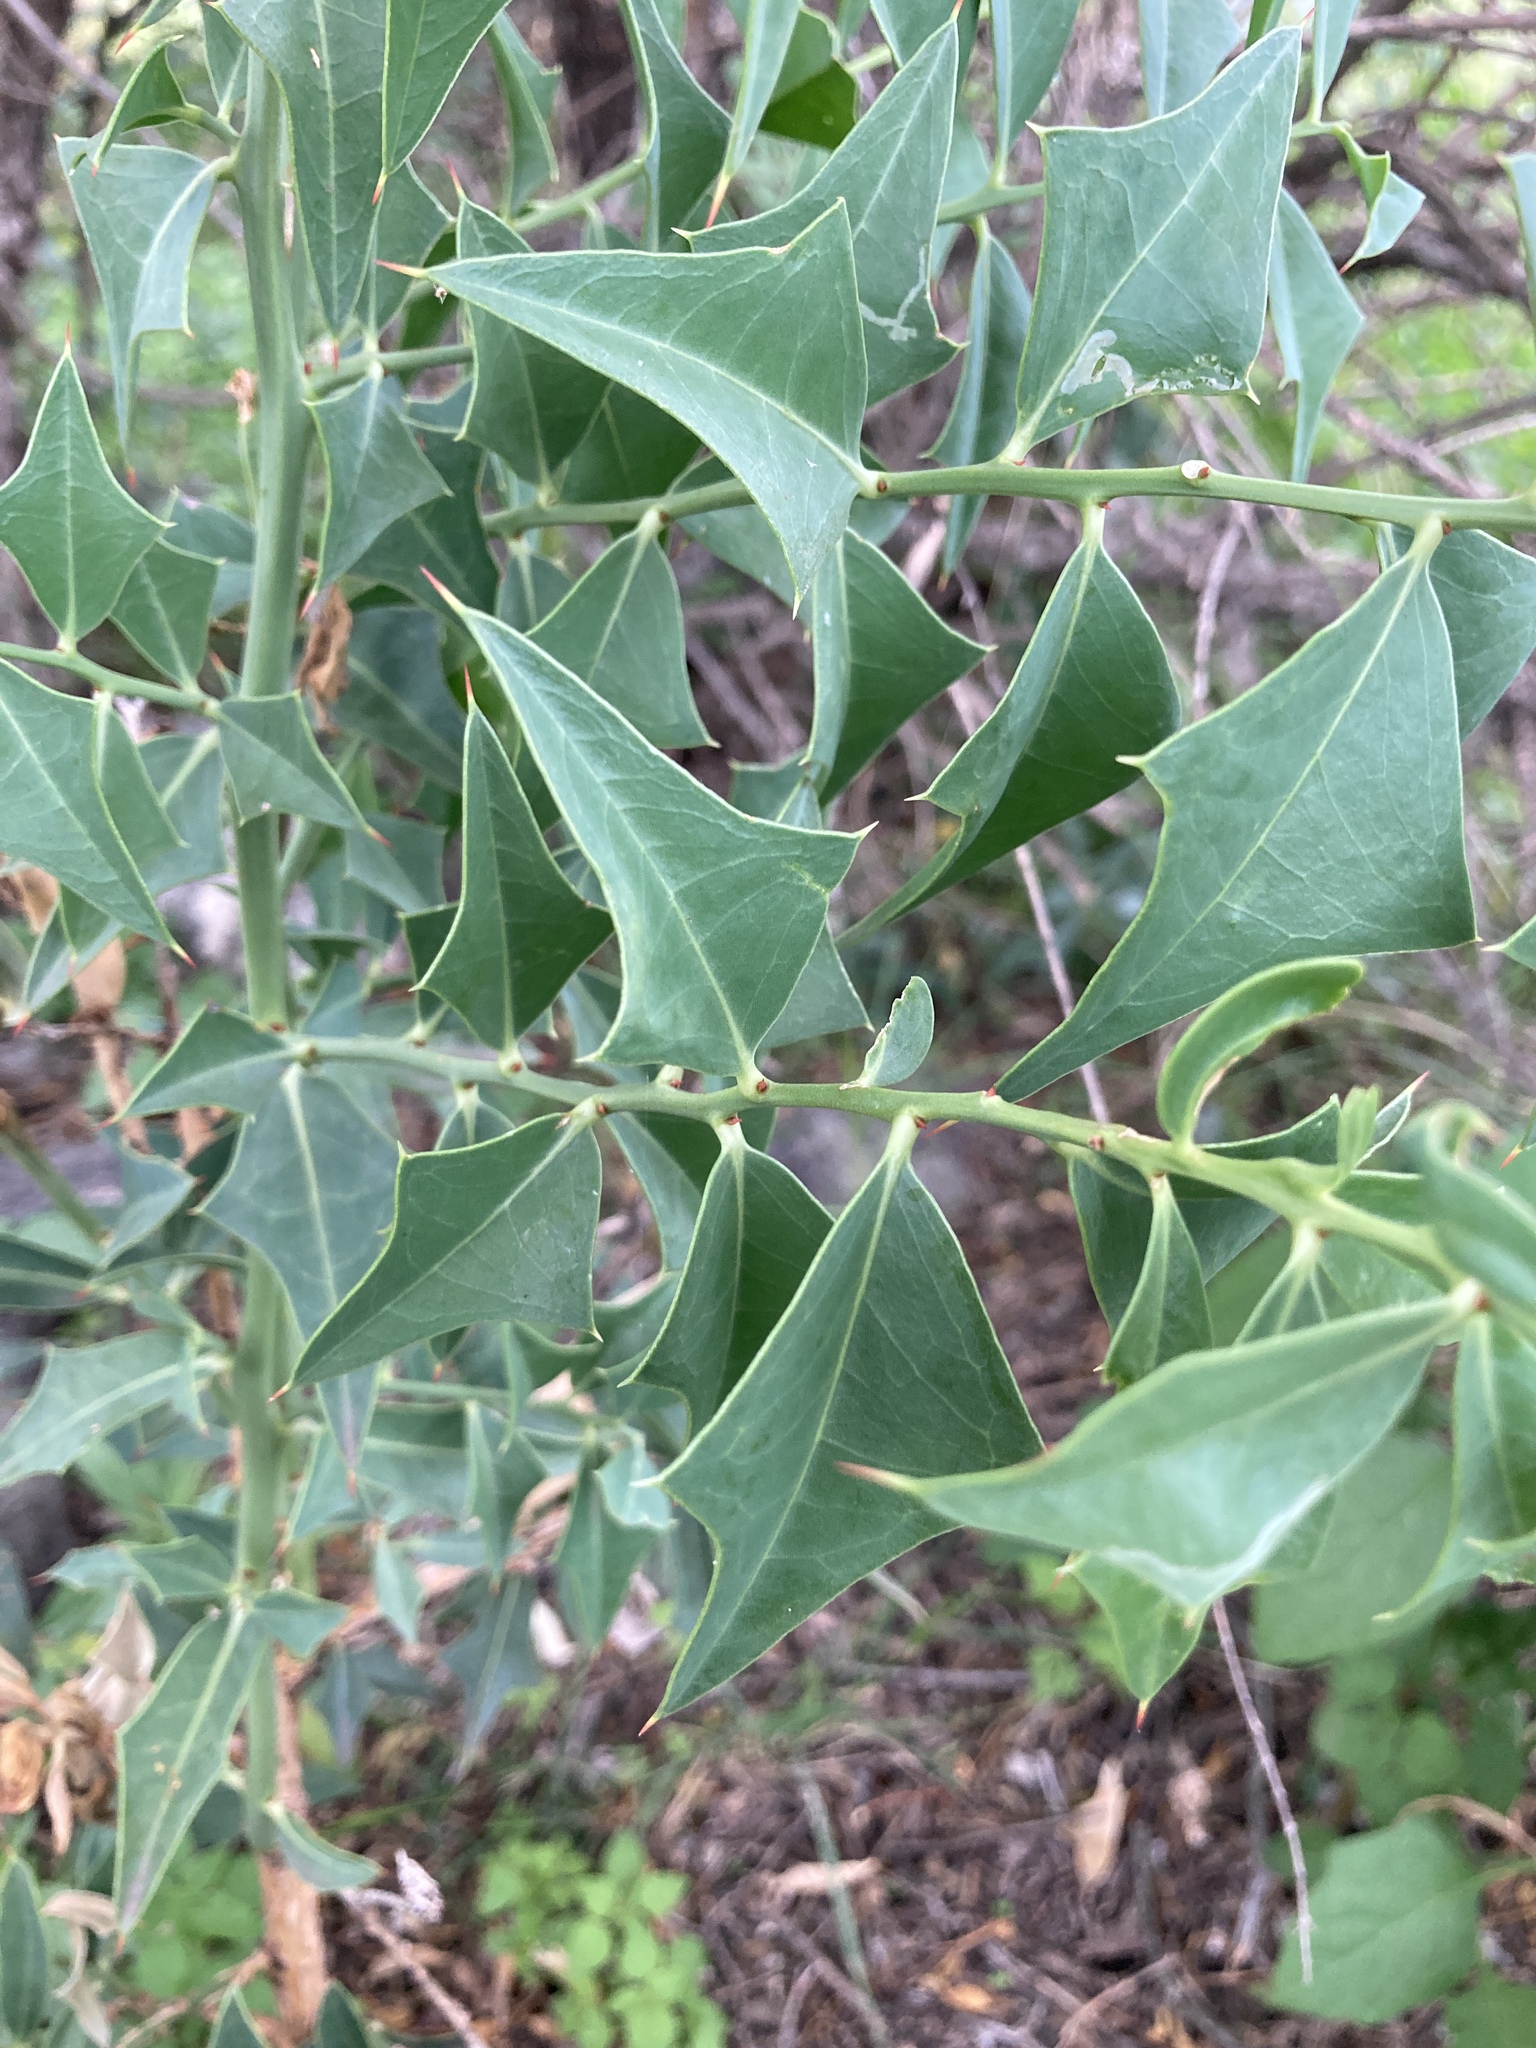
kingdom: Plantae
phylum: Tracheophyta
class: Magnoliopsida
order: Santalales
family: Cervantesiaceae
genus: Jodina
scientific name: Jodina rhombifolia
